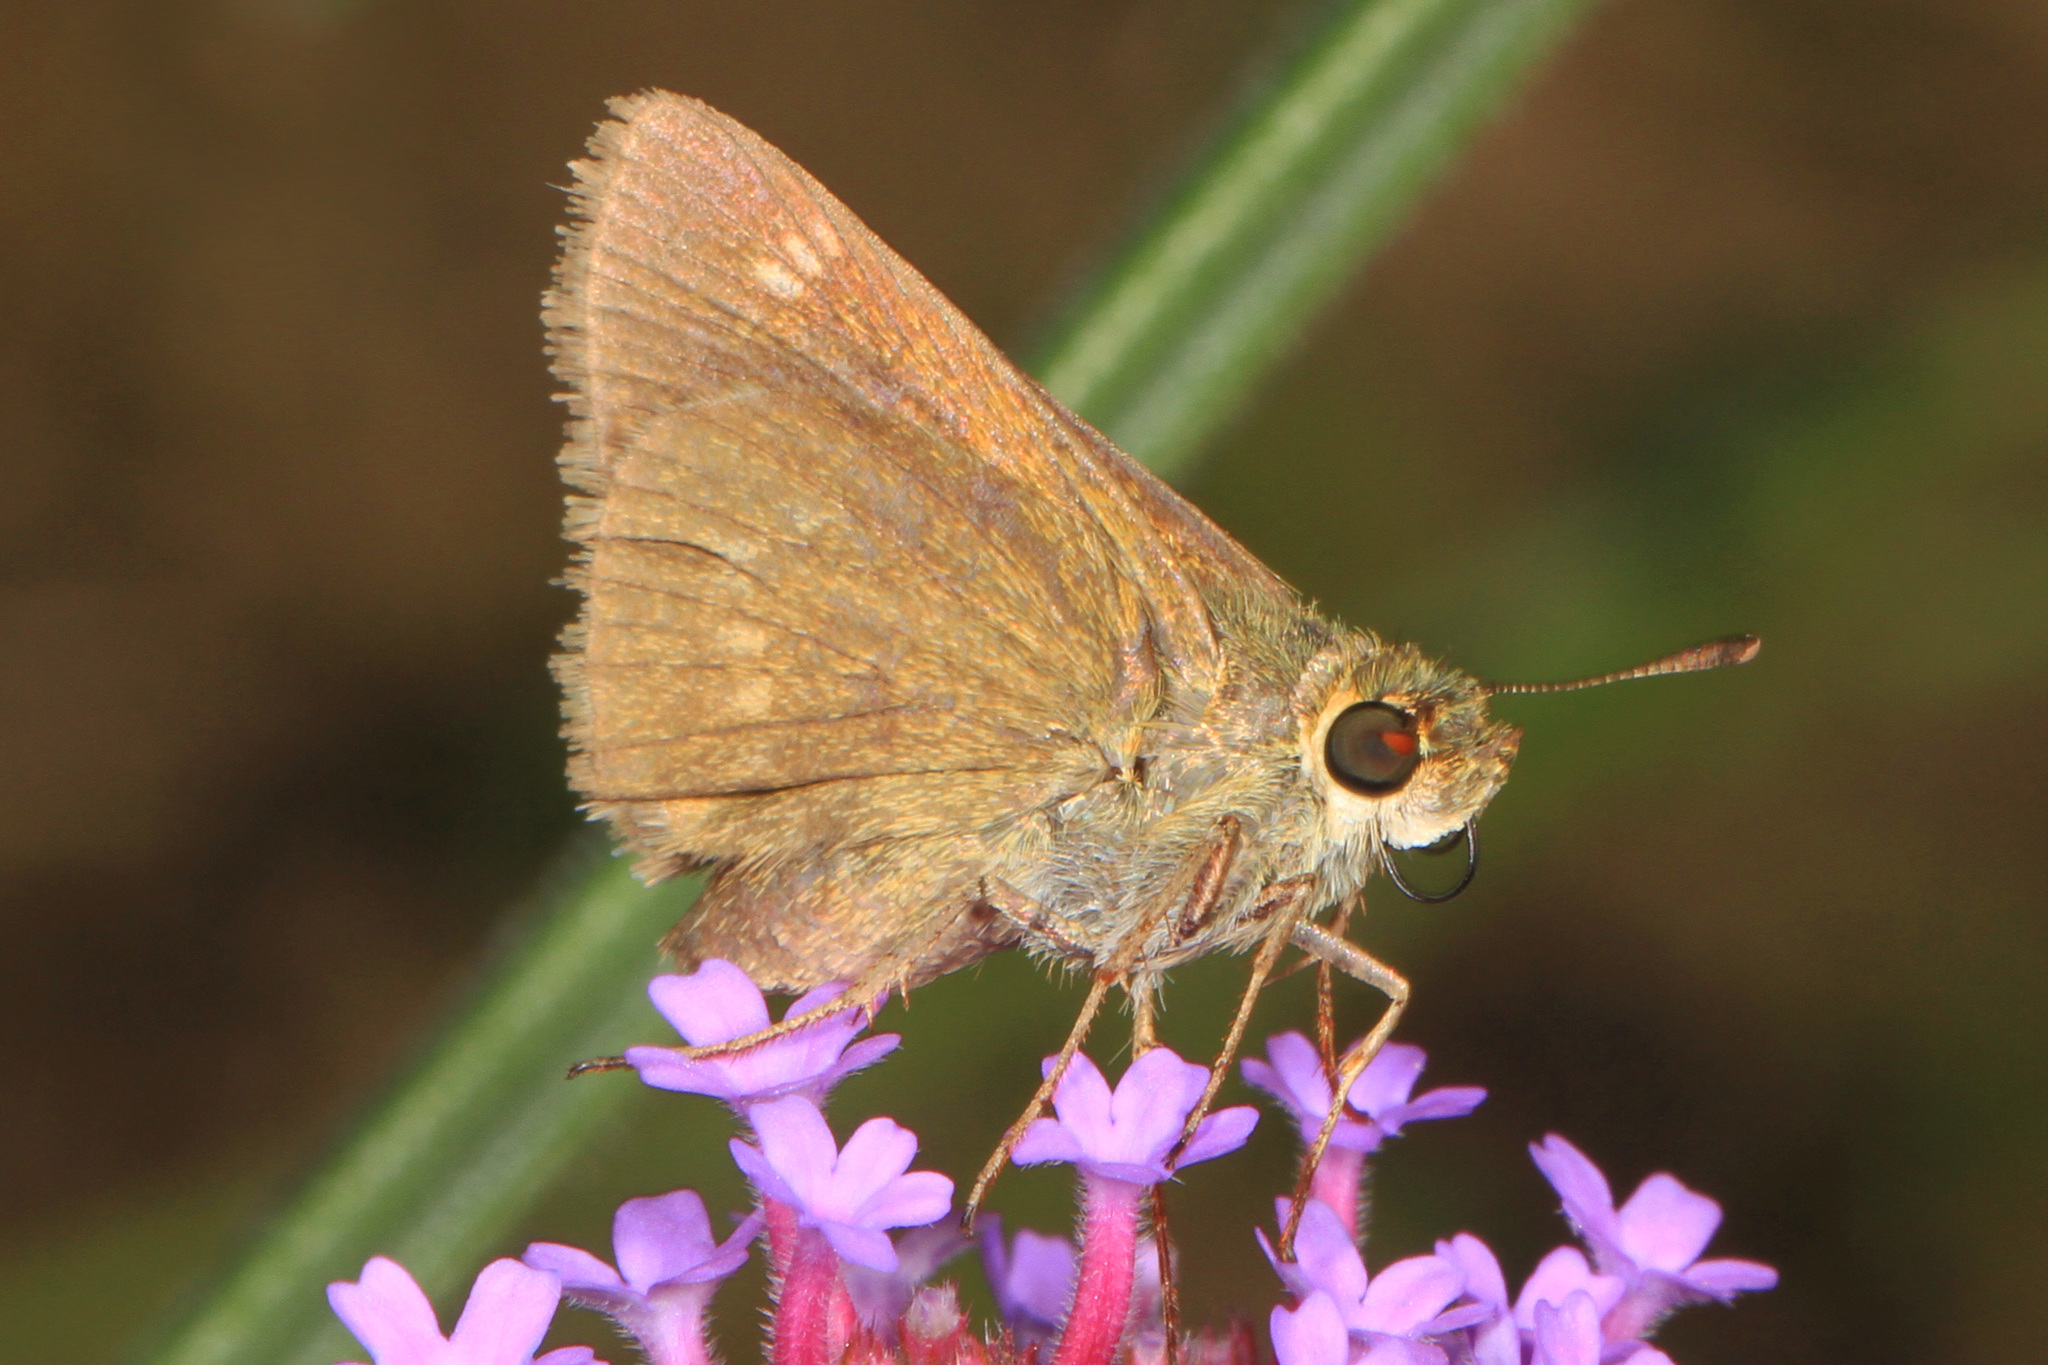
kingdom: Animalia
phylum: Arthropoda
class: Insecta
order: Lepidoptera
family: Hesperiidae
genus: Polites
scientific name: Polites origenes
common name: Crossline skipper
